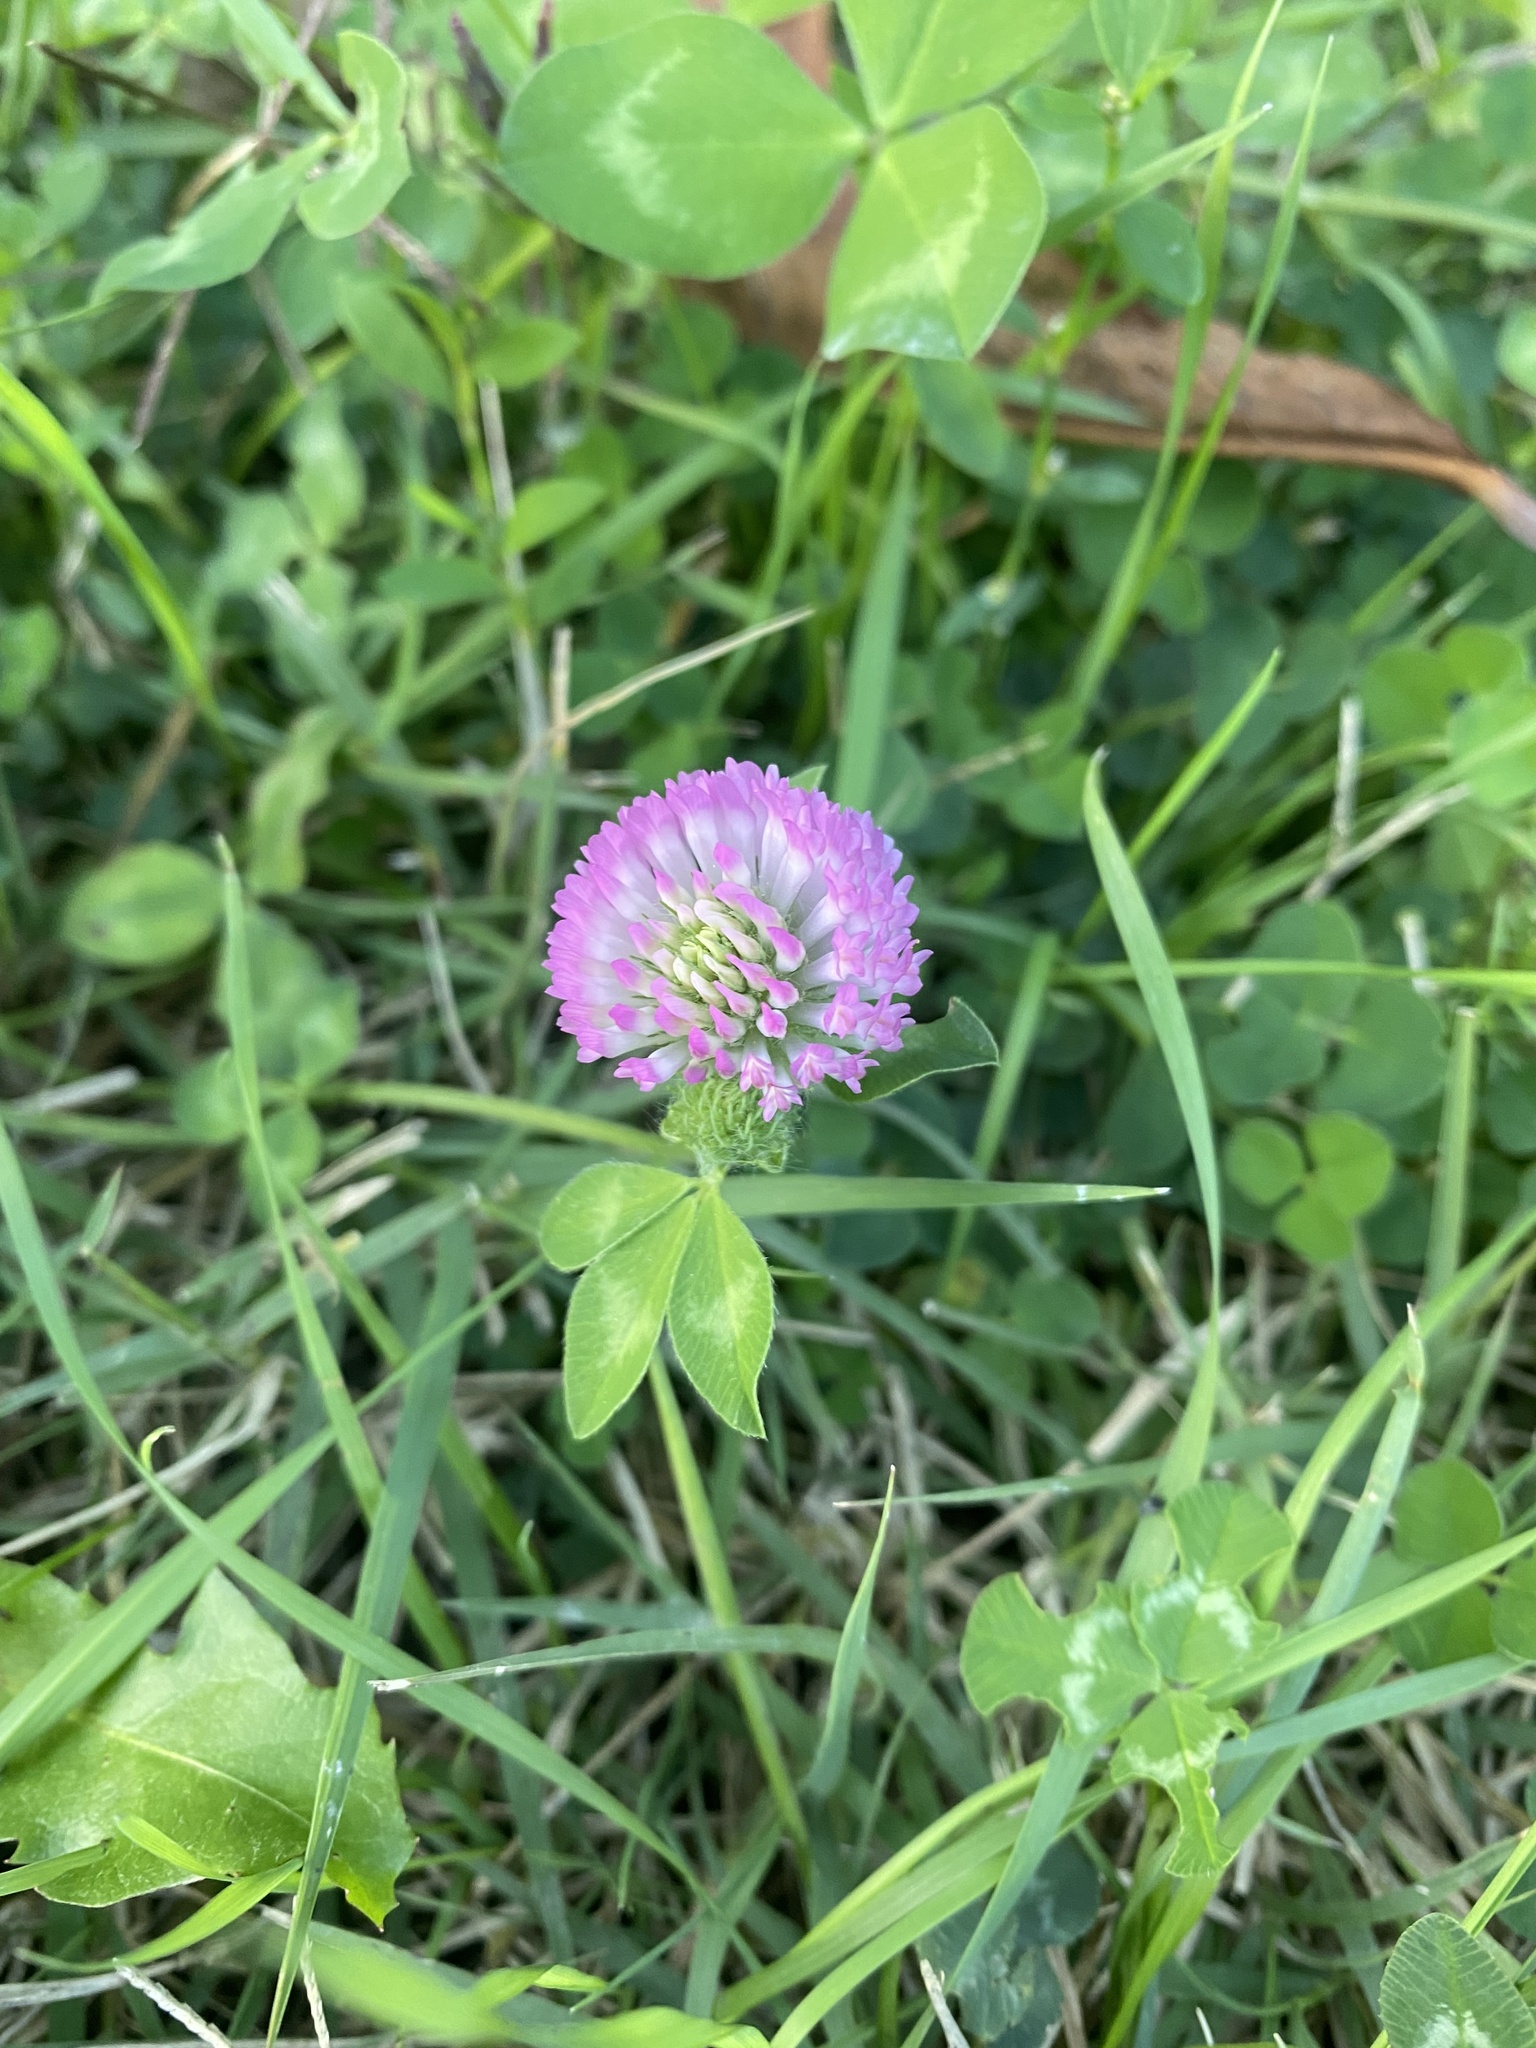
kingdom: Plantae
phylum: Tracheophyta
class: Magnoliopsida
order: Fabales
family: Fabaceae
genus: Trifolium
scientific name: Trifolium pratense
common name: Red clover
